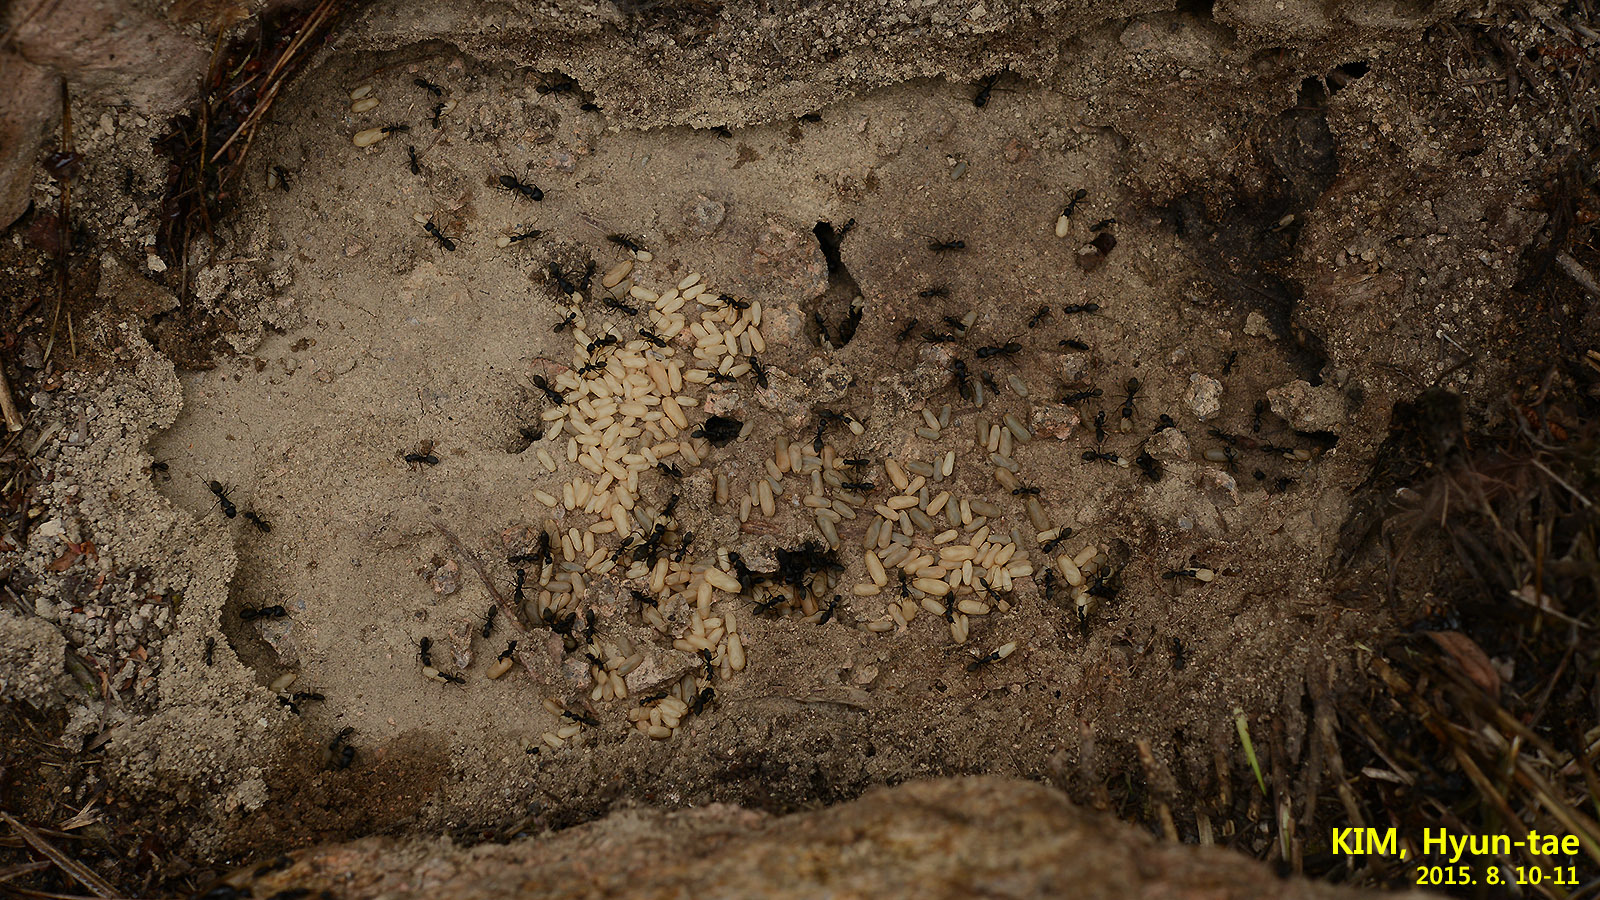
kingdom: Animalia
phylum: Arthropoda
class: Insecta
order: Hymenoptera
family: Formicidae
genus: Camponotus
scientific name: Camponotus japonicus
